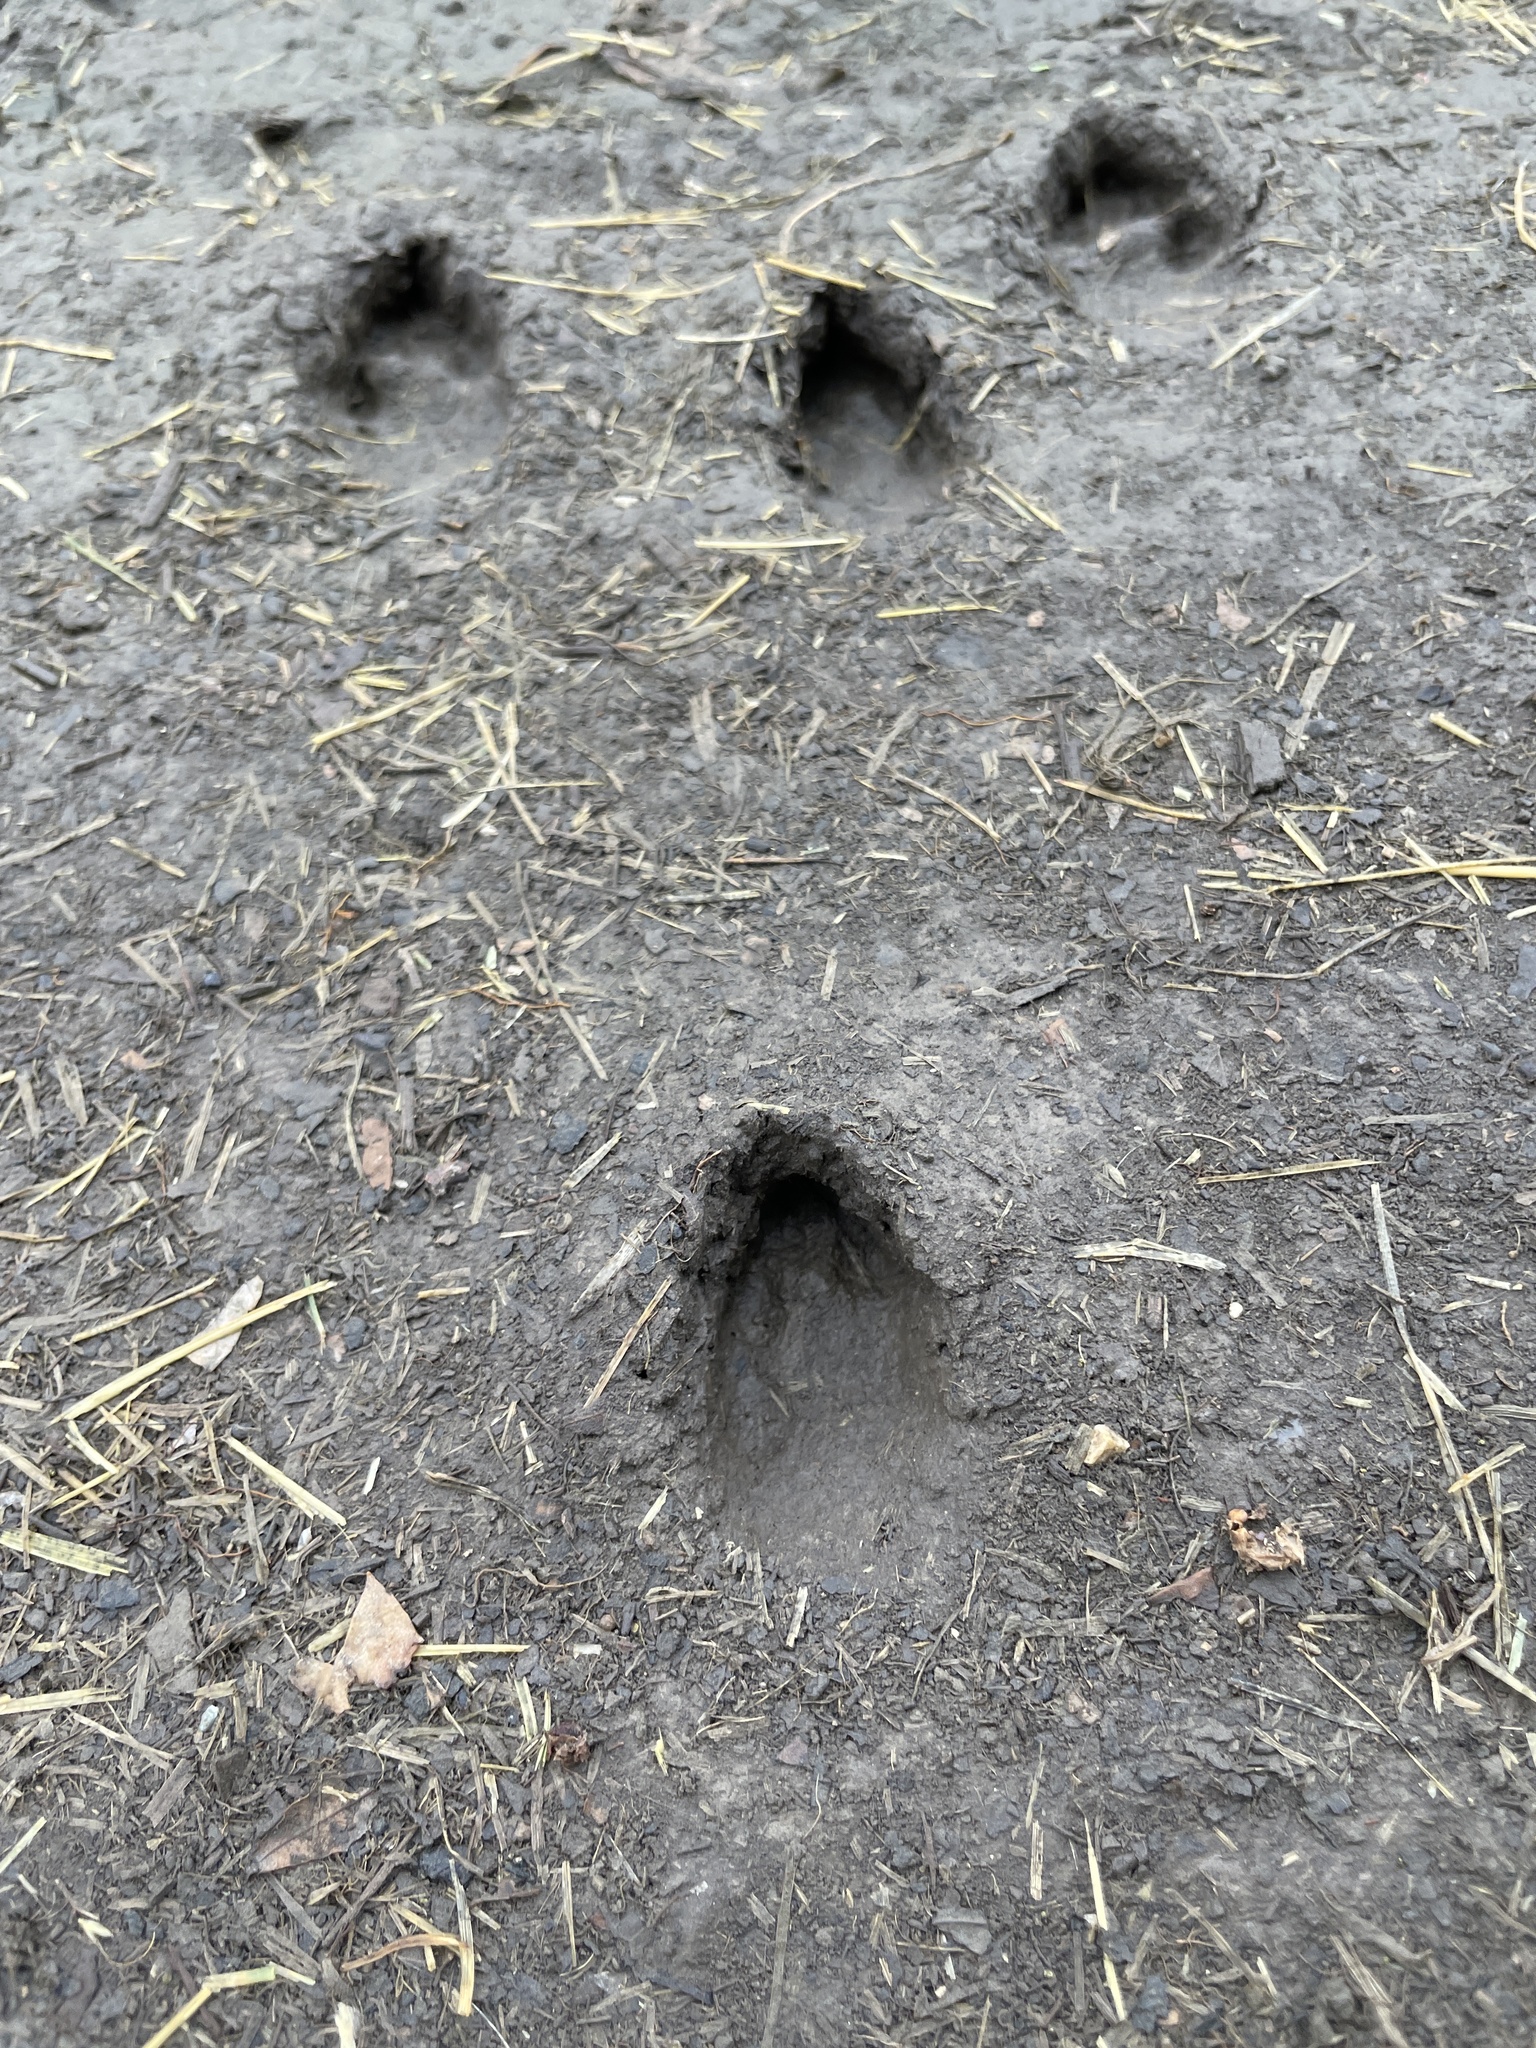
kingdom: Animalia
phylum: Chordata
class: Mammalia
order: Artiodactyla
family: Cervidae
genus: Odocoileus
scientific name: Odocoileus virginianus
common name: White-tailed deer
